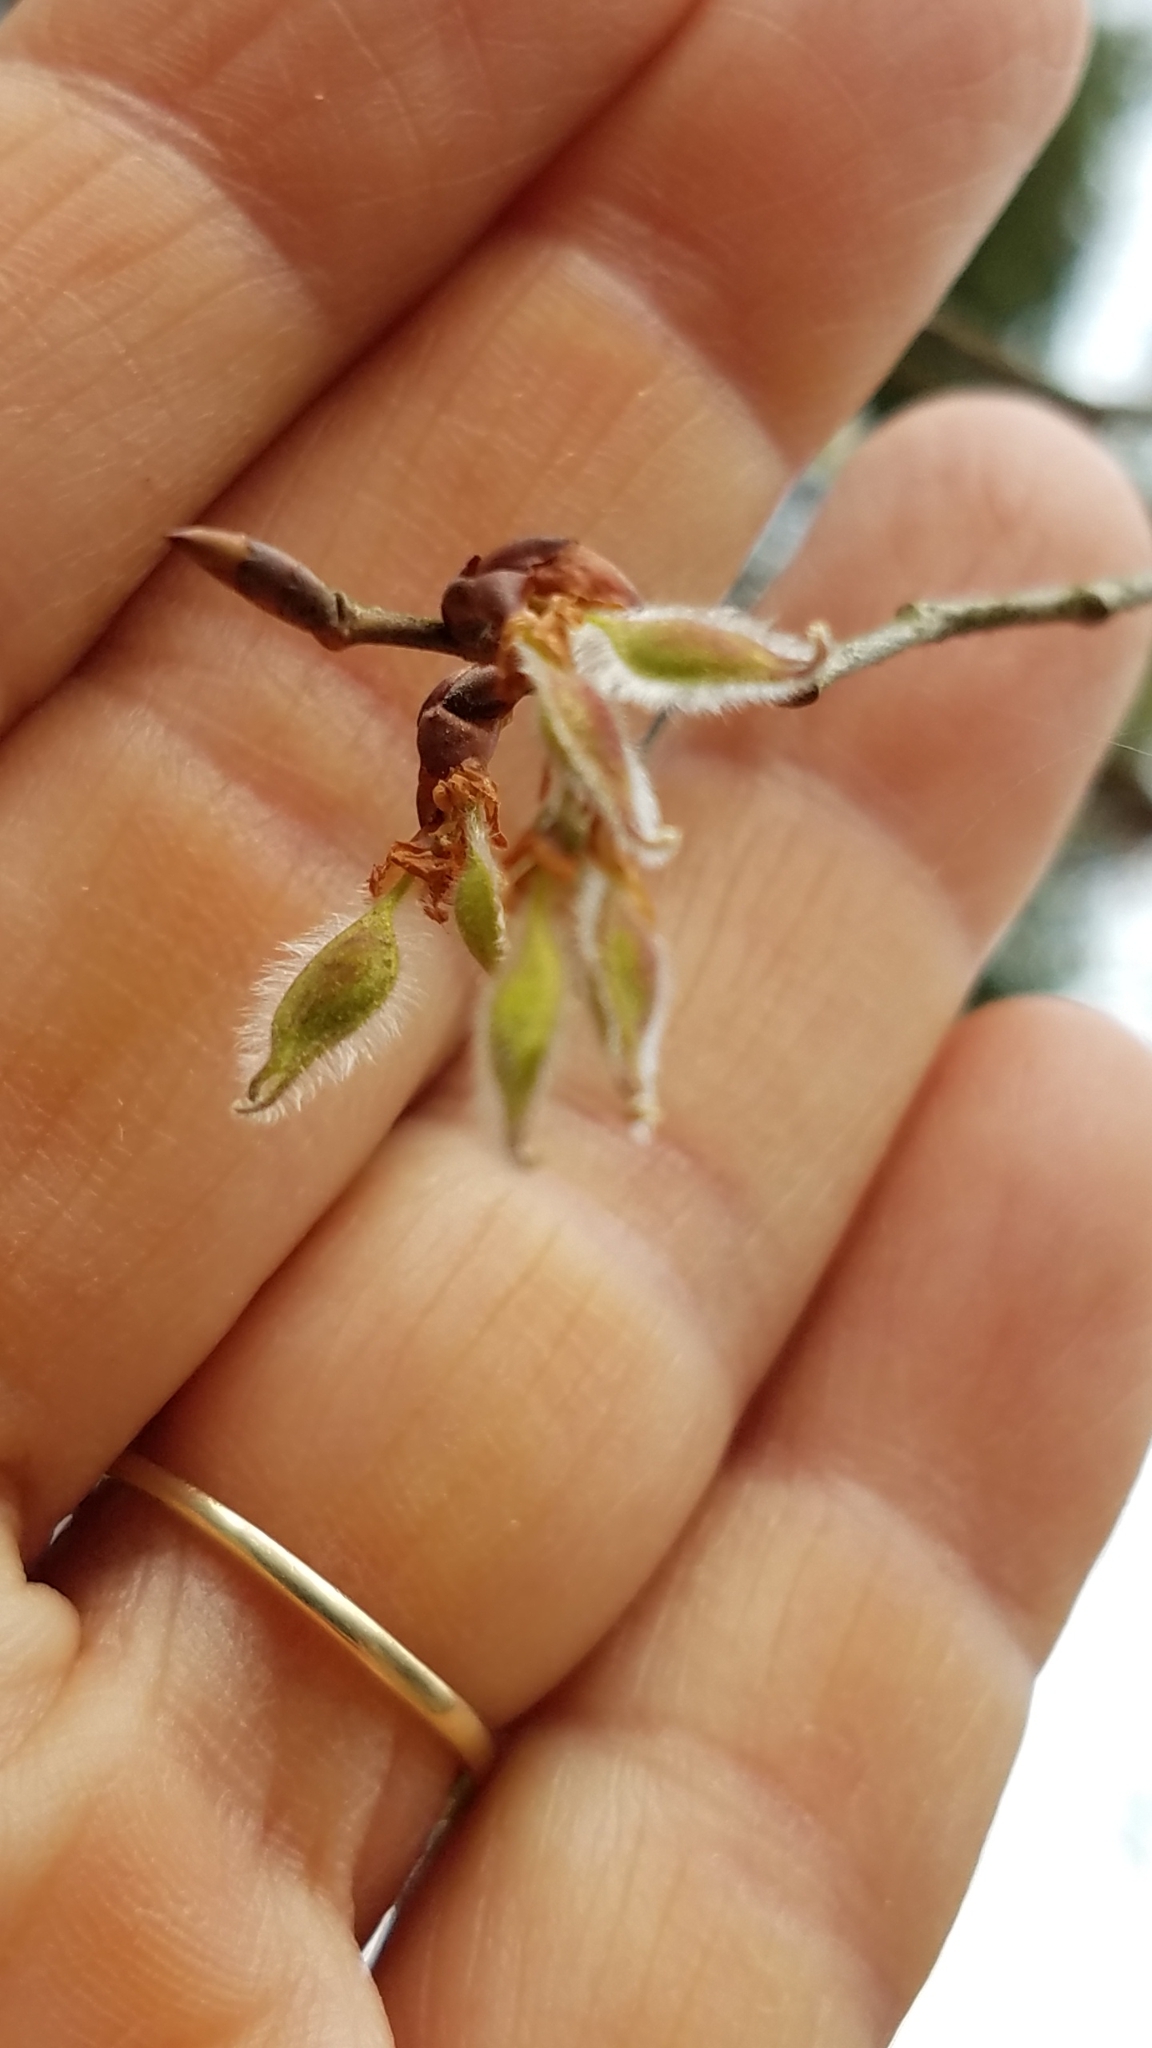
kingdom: Plantae
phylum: Tracheophyta
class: Magnoliopsida
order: Rosales
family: Ulmaceae
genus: Ulmus
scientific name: Ulmus alata
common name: Winged elm
